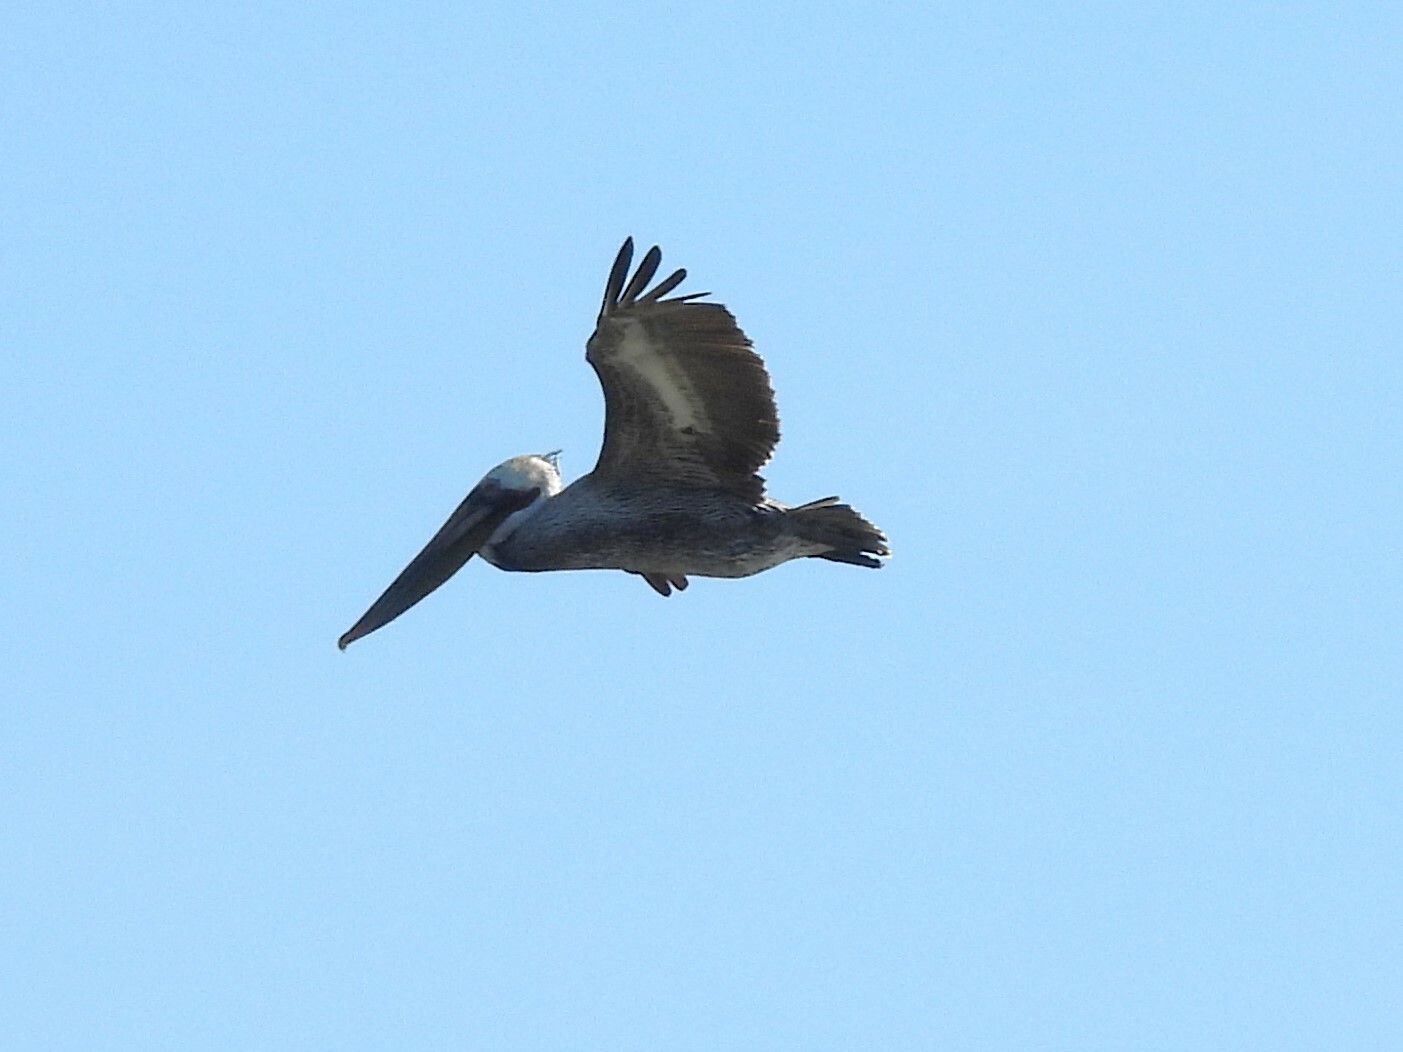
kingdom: Animalia
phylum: Chordata
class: Aves
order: Pelecaniformes
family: Pelecanidae
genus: Pelecanus
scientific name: Pelecanus occidentalis
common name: Brown pelican
